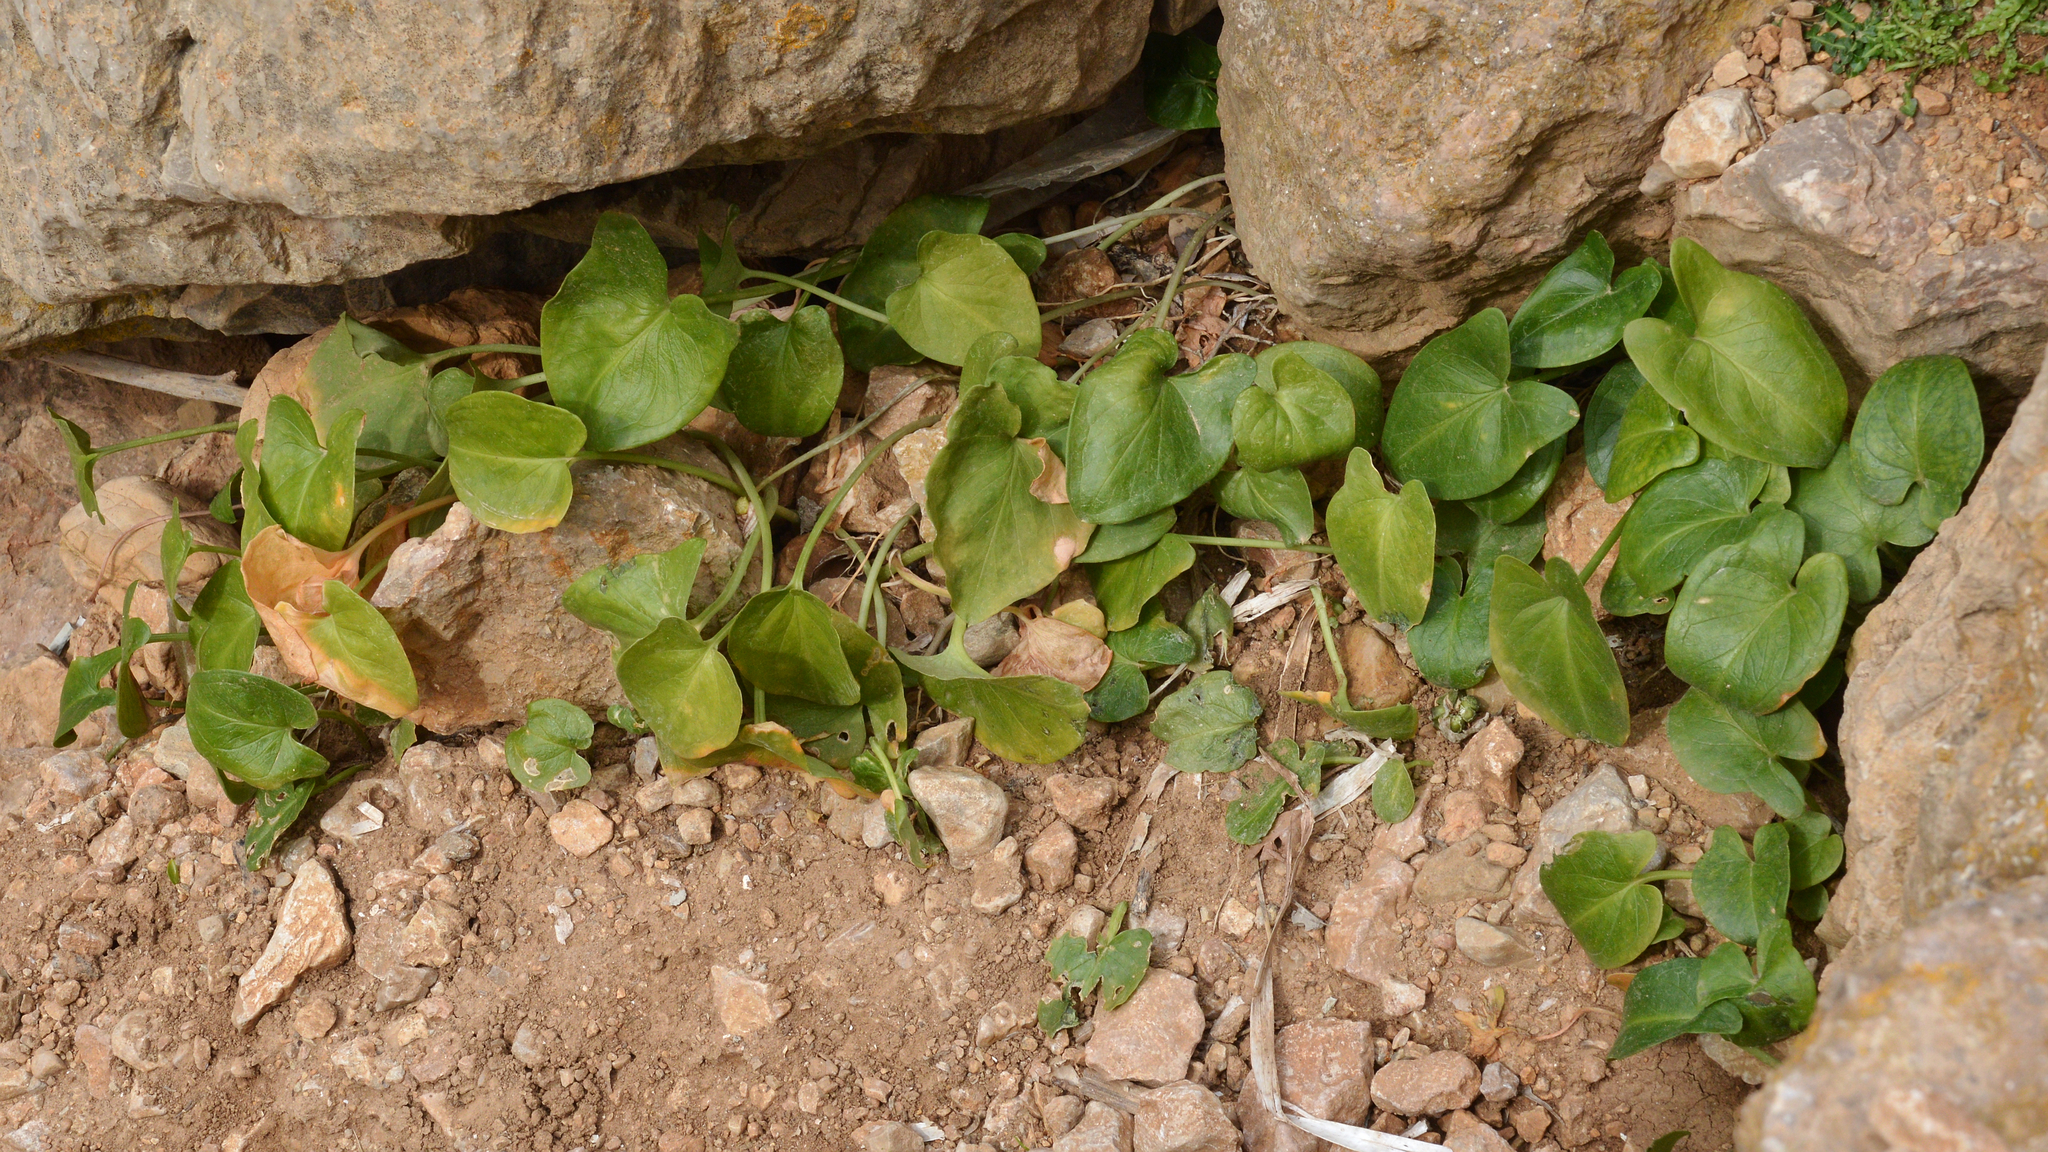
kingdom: Plantae
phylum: Tracheophyta
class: Liliopsida
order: Alismatales
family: Araceae
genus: Arisarum
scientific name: Arisarum vulgare
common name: Common arisarum
